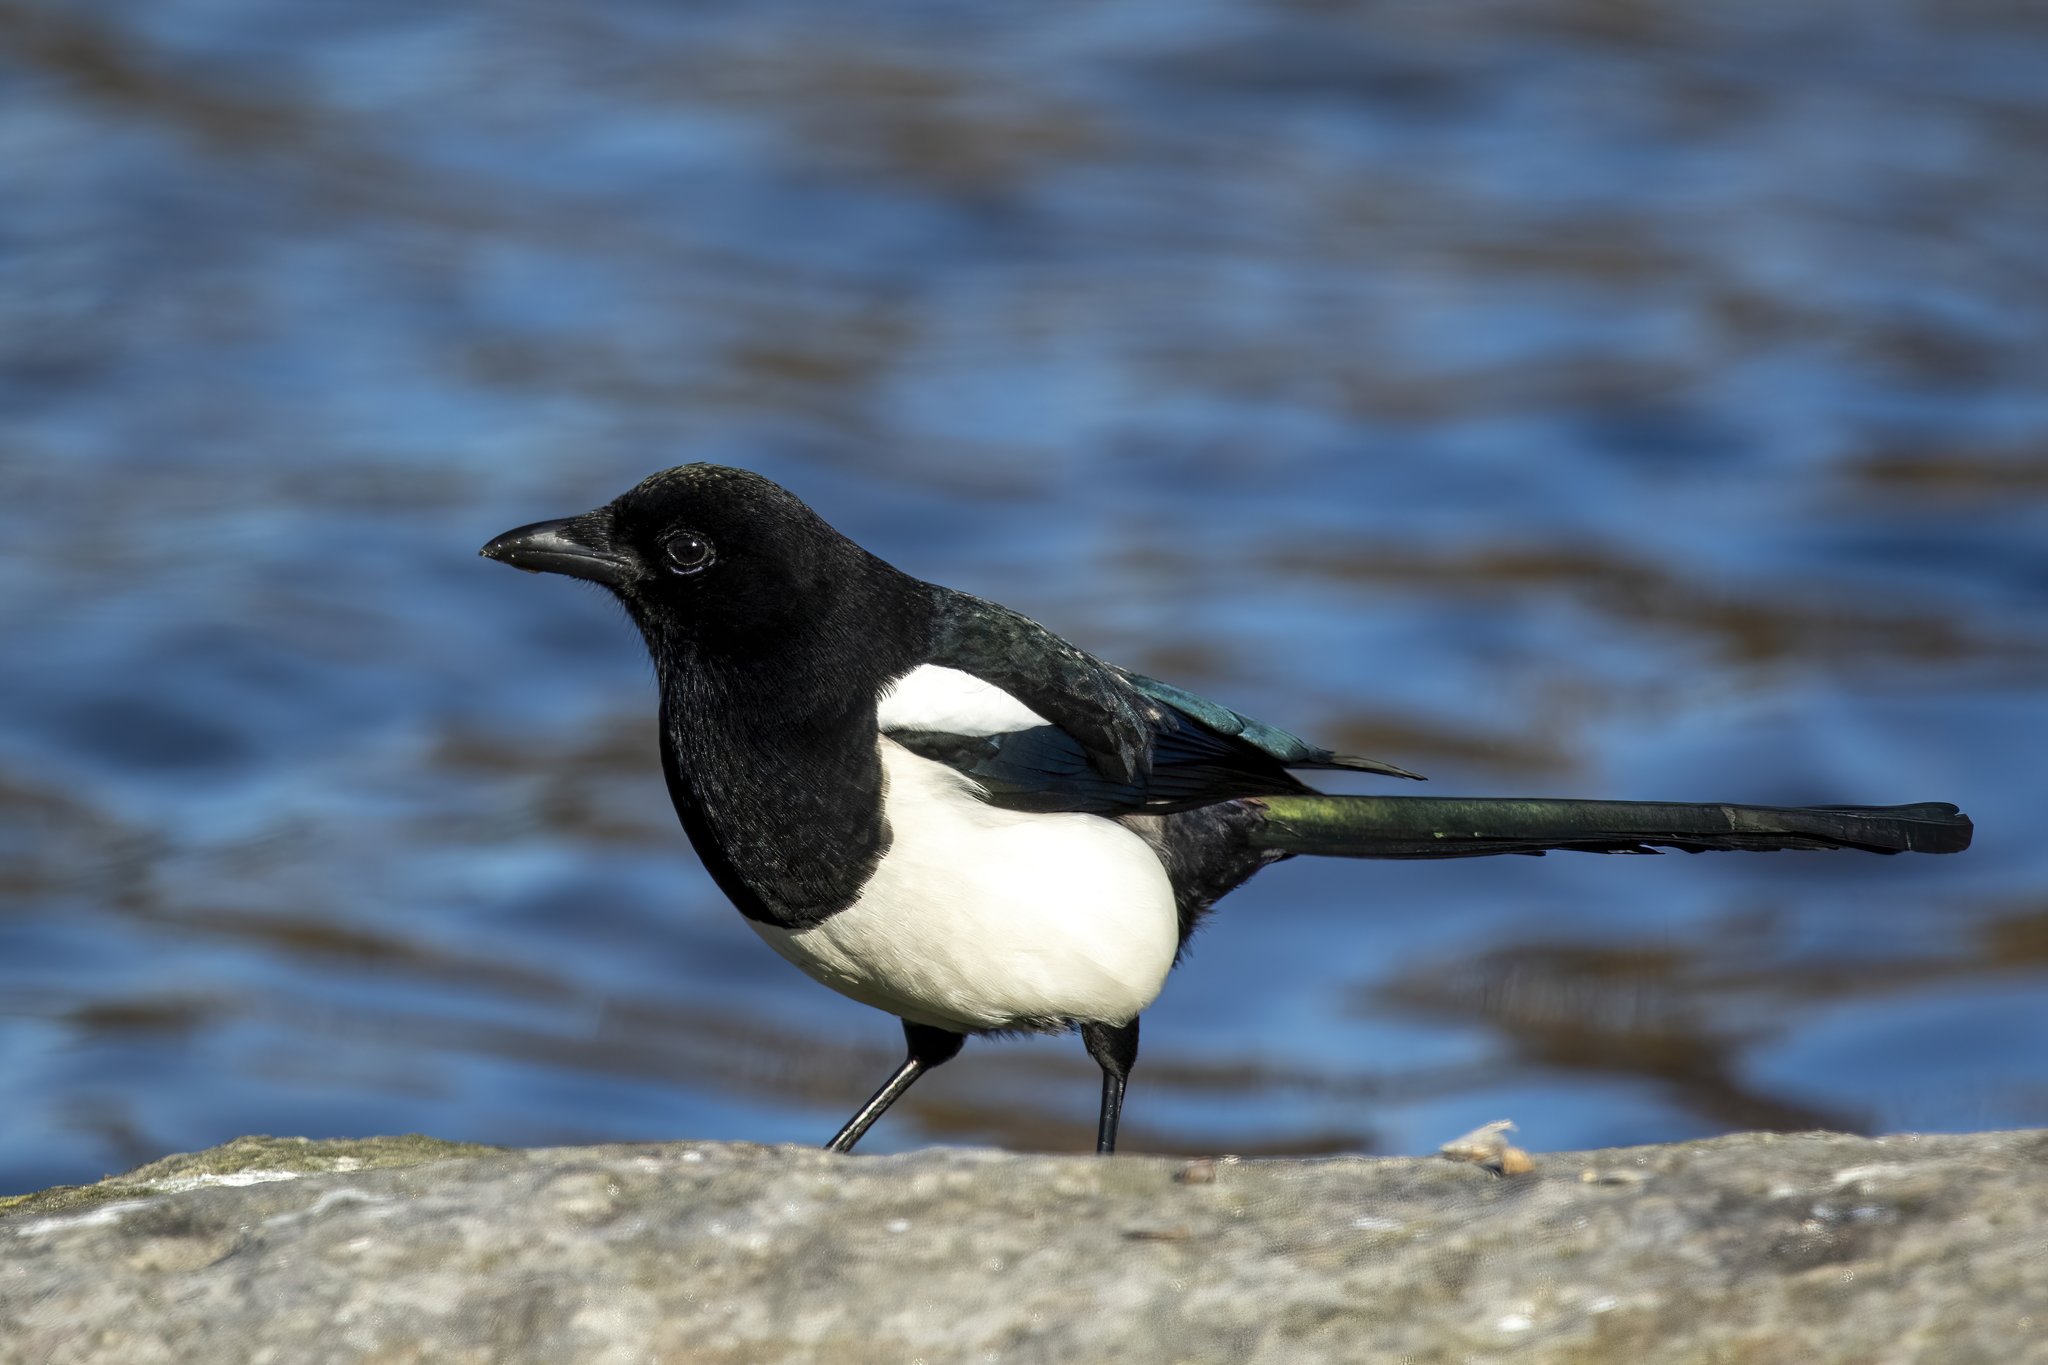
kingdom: Animalia
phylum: Chordata
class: Aves
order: Passeriformes
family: Corvidae
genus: Pica
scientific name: Pica pica
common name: Eurasian magpie
